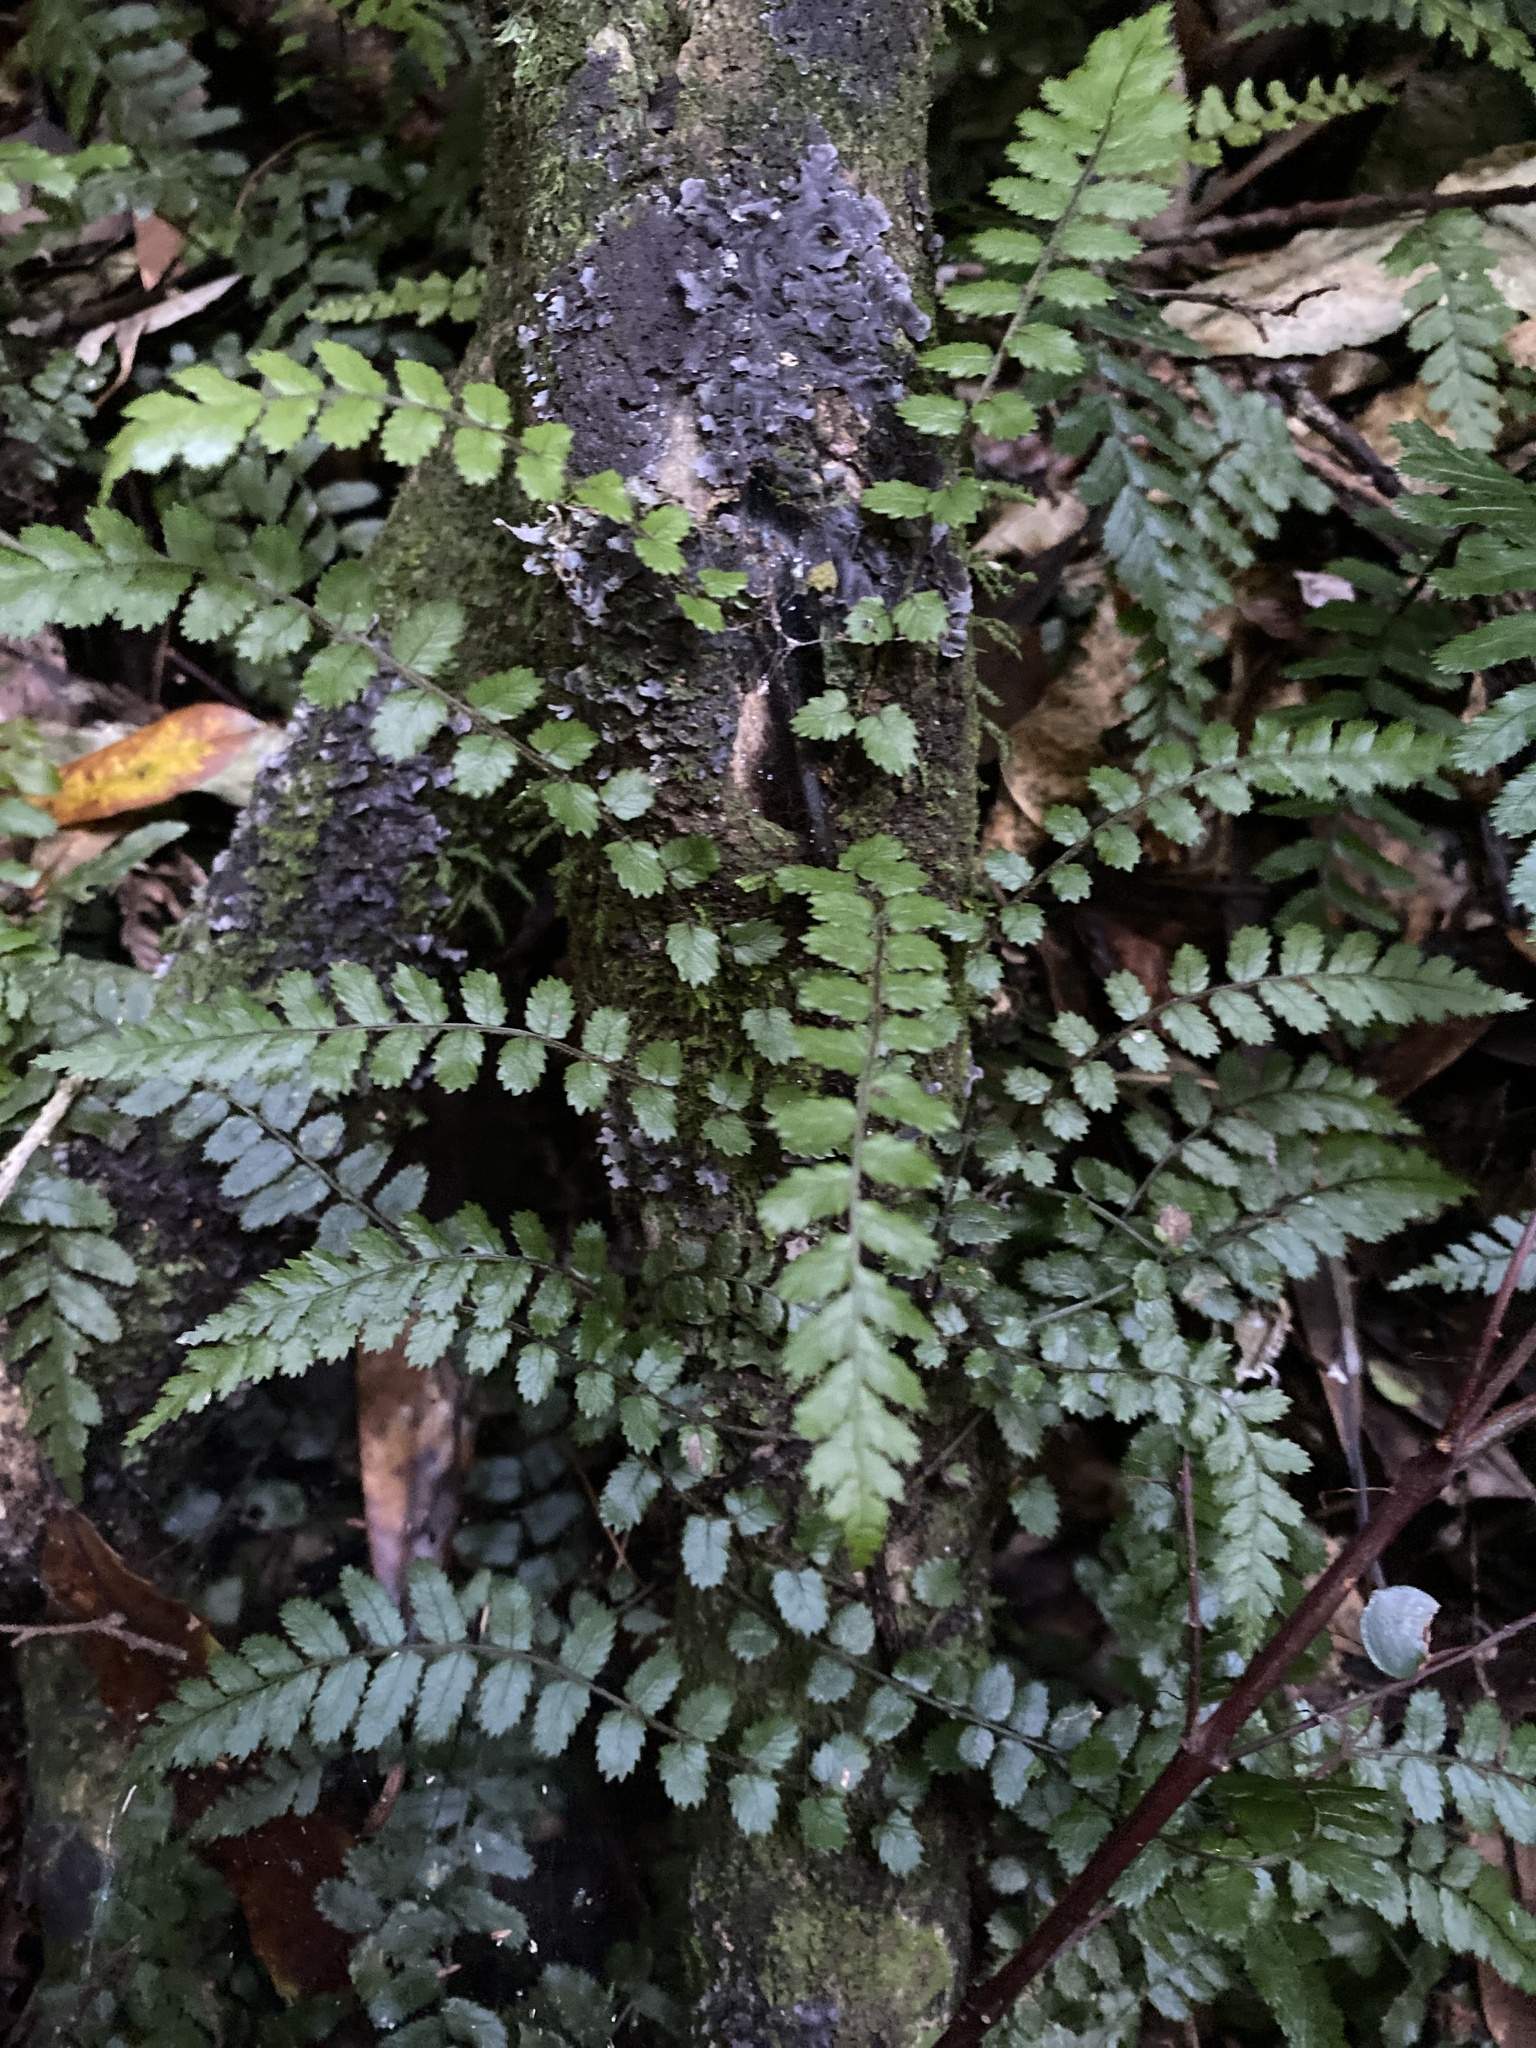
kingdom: Plantae
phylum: Tracheophyta
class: Polypodiopsida
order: Polypodiales
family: Blechnaceae
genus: Icarus
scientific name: Icarus filiformis
